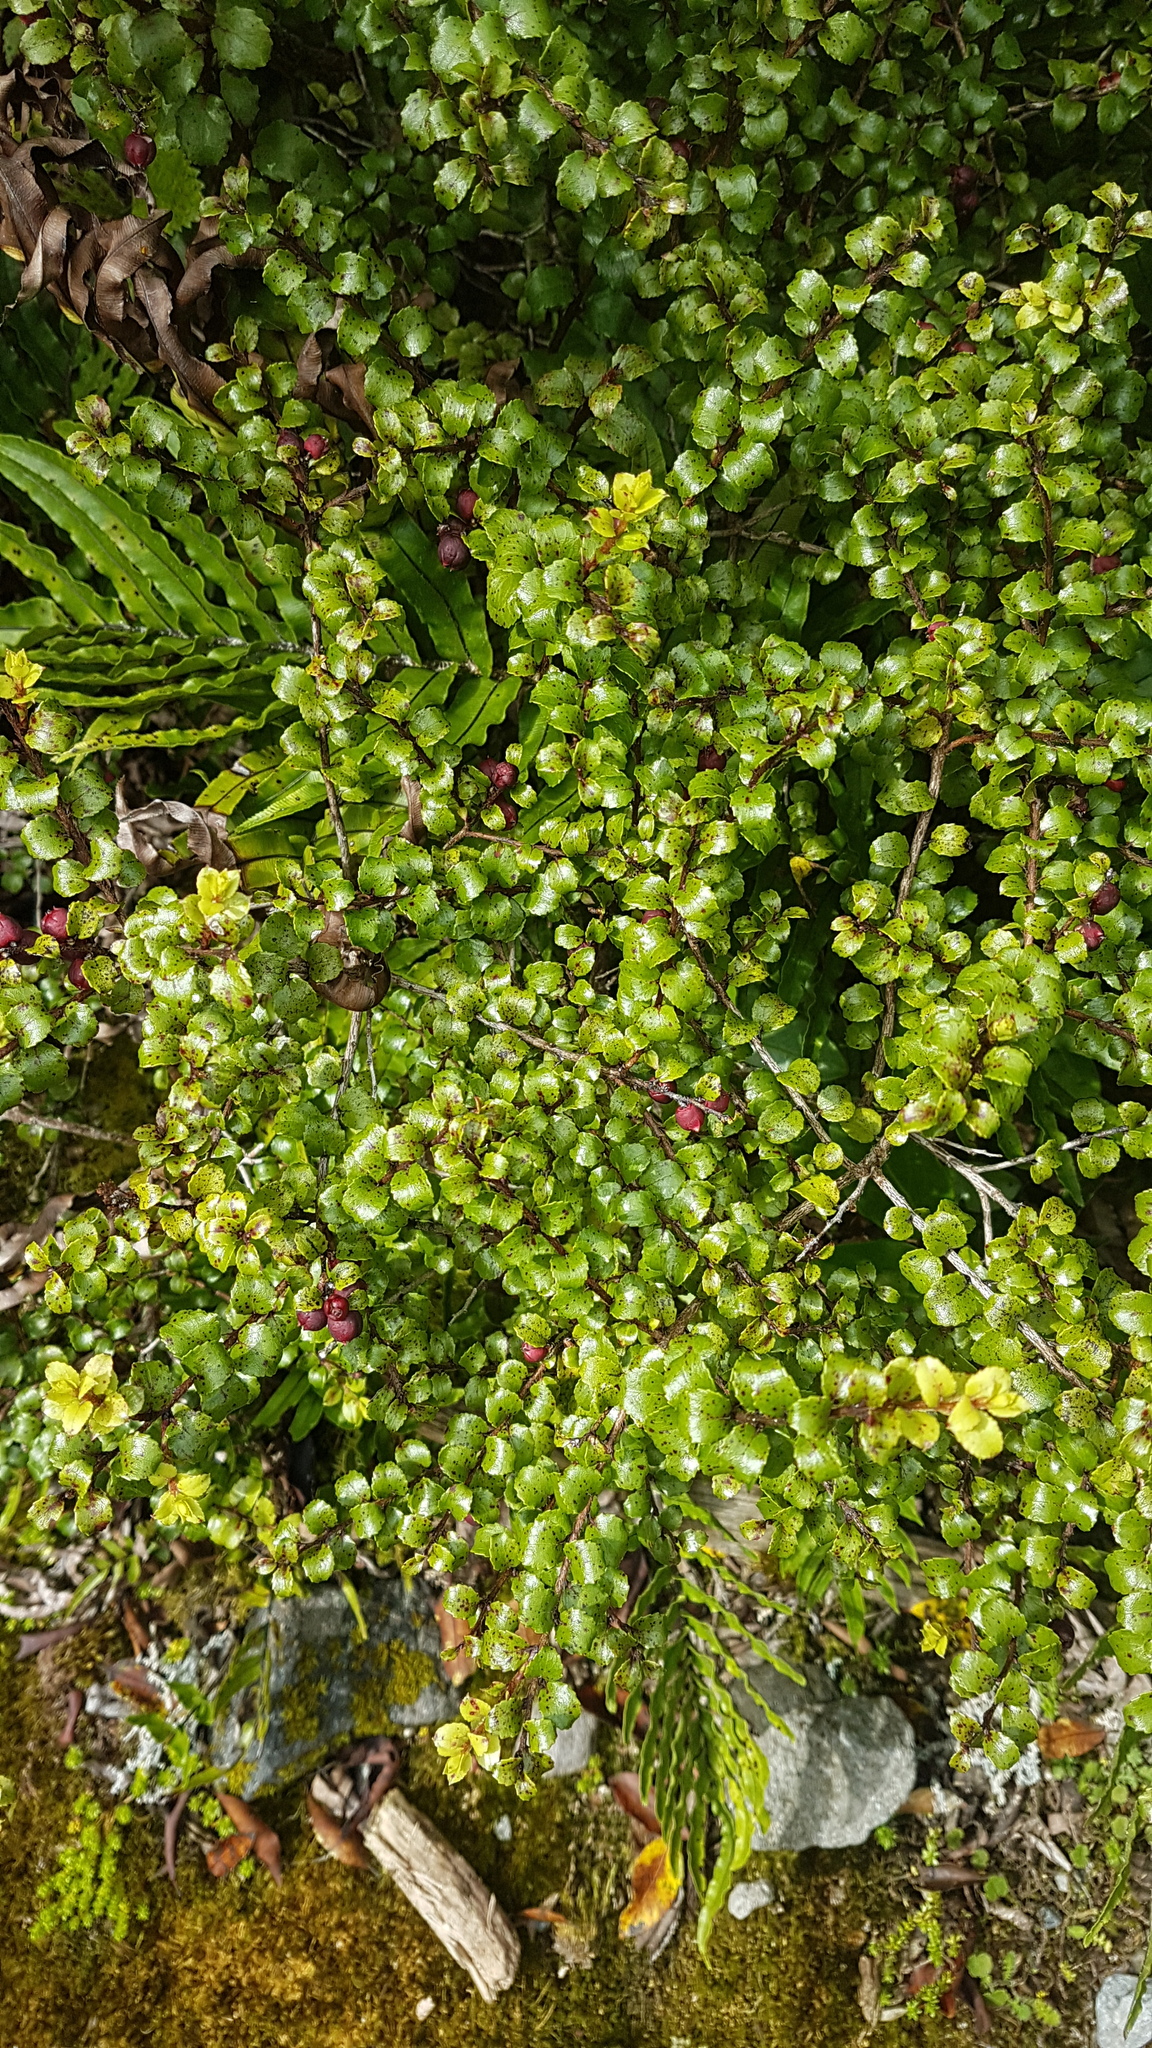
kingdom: Plantae
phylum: Tracheophyta
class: Magnoliopsida
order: Ericales
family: Ericaceae
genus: Gaultheria
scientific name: Gaultheria antipoda
